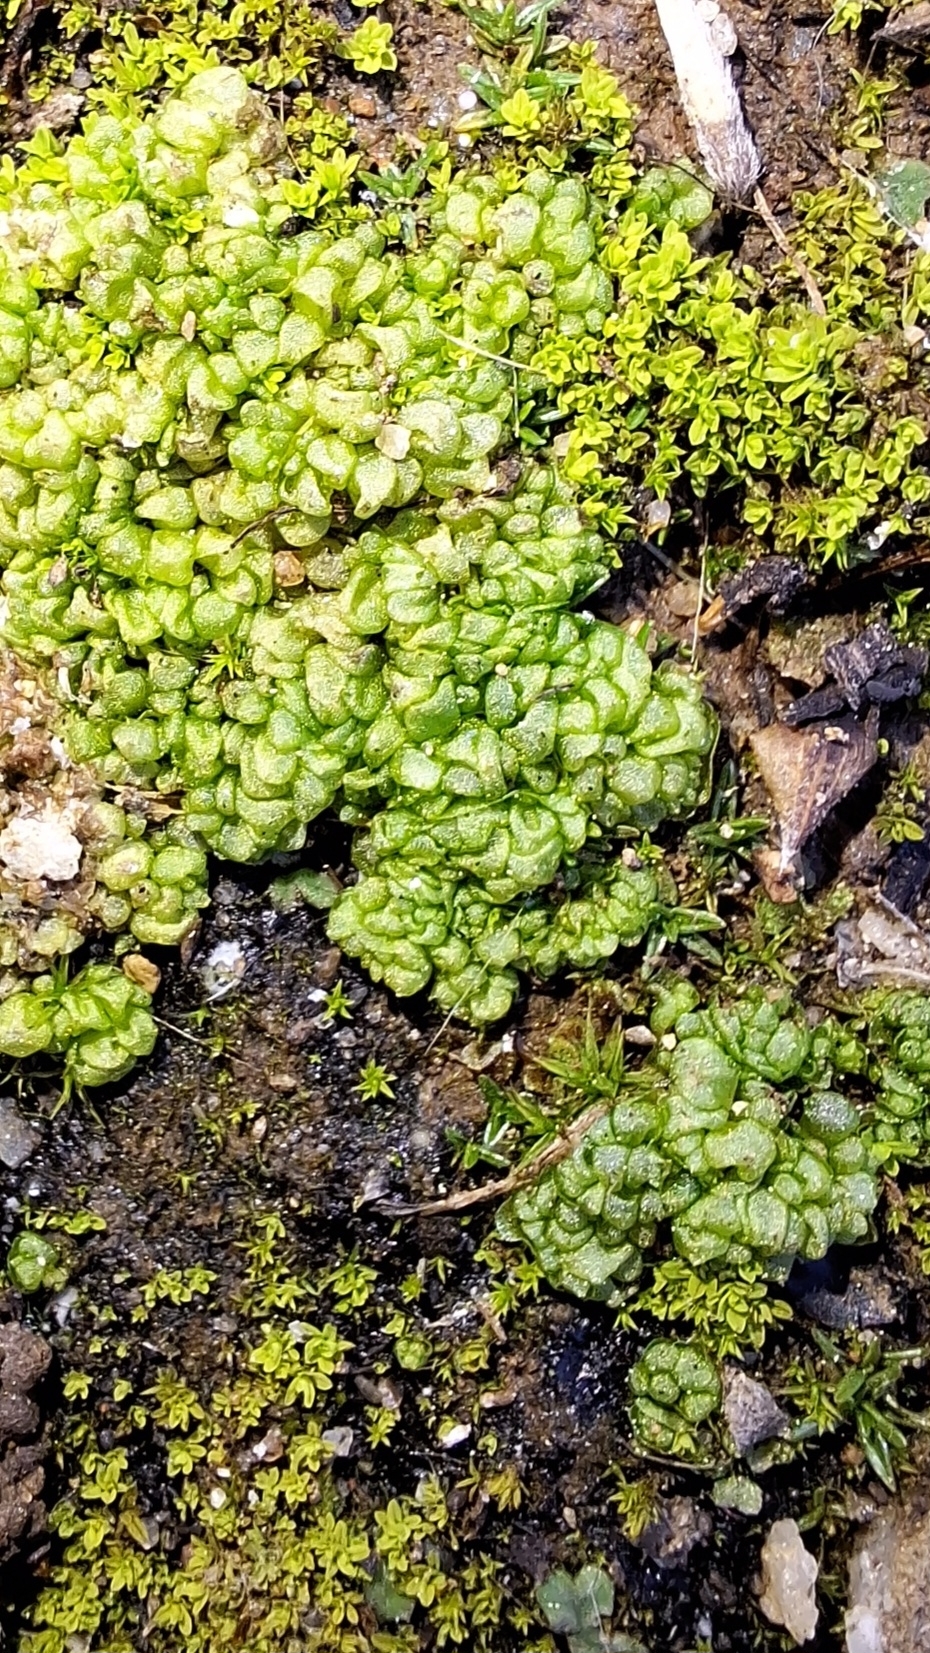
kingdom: Plantae
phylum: Marchantiophyta
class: Marchantiopsida
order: Sphaerocarpales
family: Sphaerocarpaceae
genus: Sphaerocarpos
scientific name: Sphaerocarpos texanus
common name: Texas balloonwort
